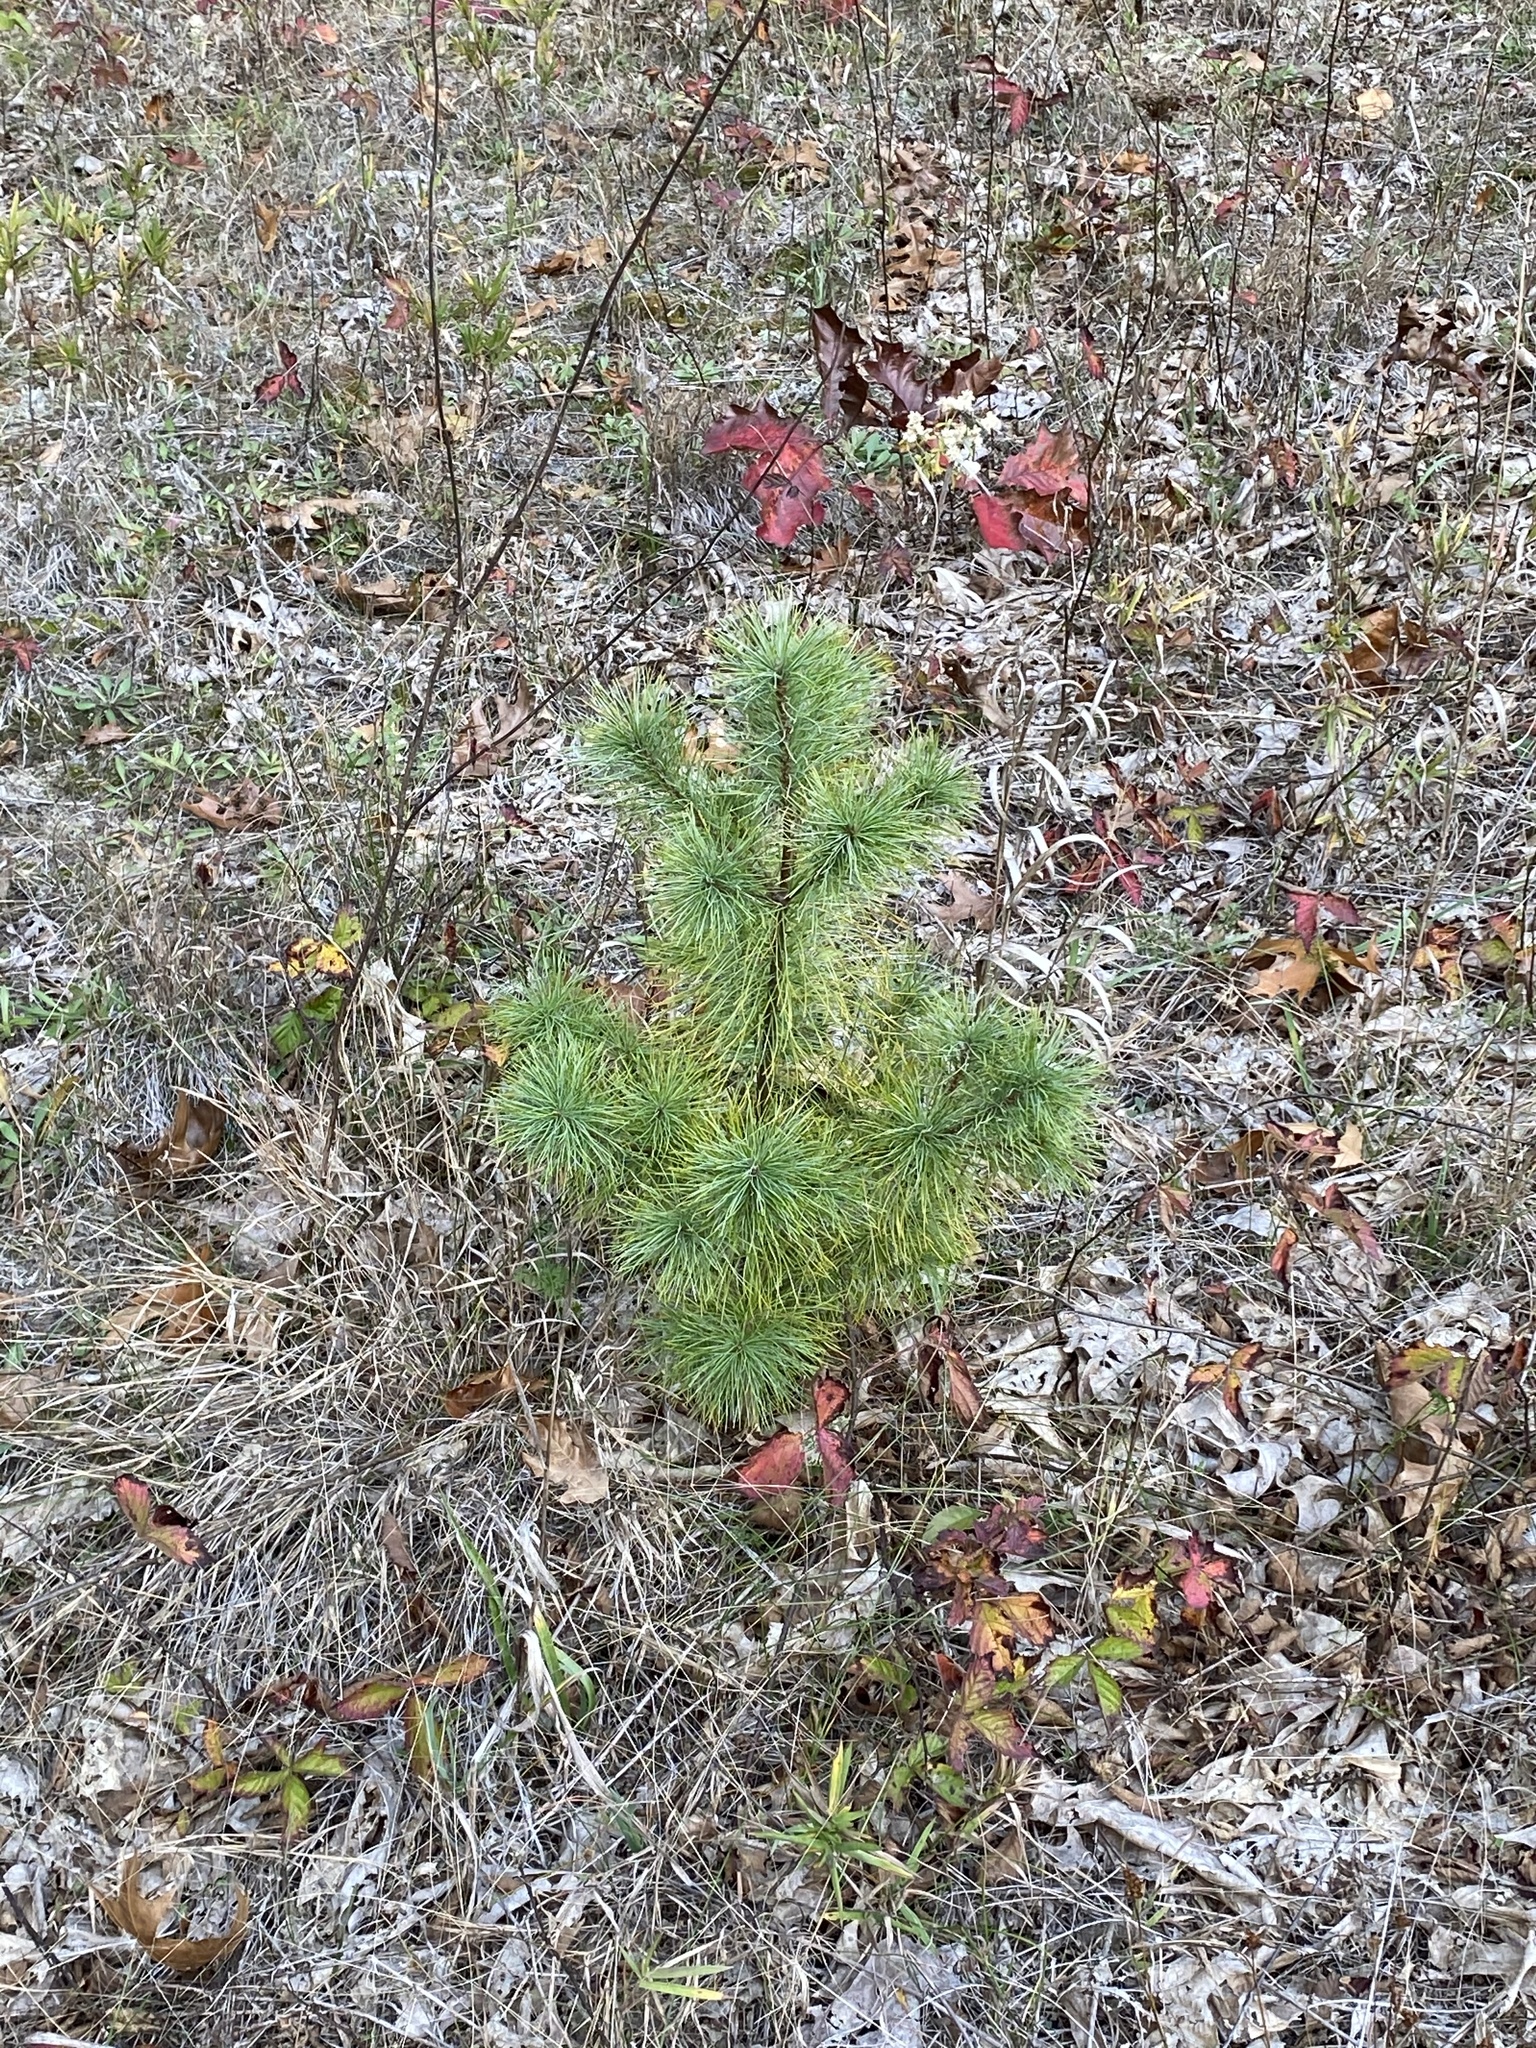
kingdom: Plantae
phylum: Tracheophyta
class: Pinopsida
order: Pinales
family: Pinaceae
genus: Pinus
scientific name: Pinus strobus
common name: Weymouth pine
